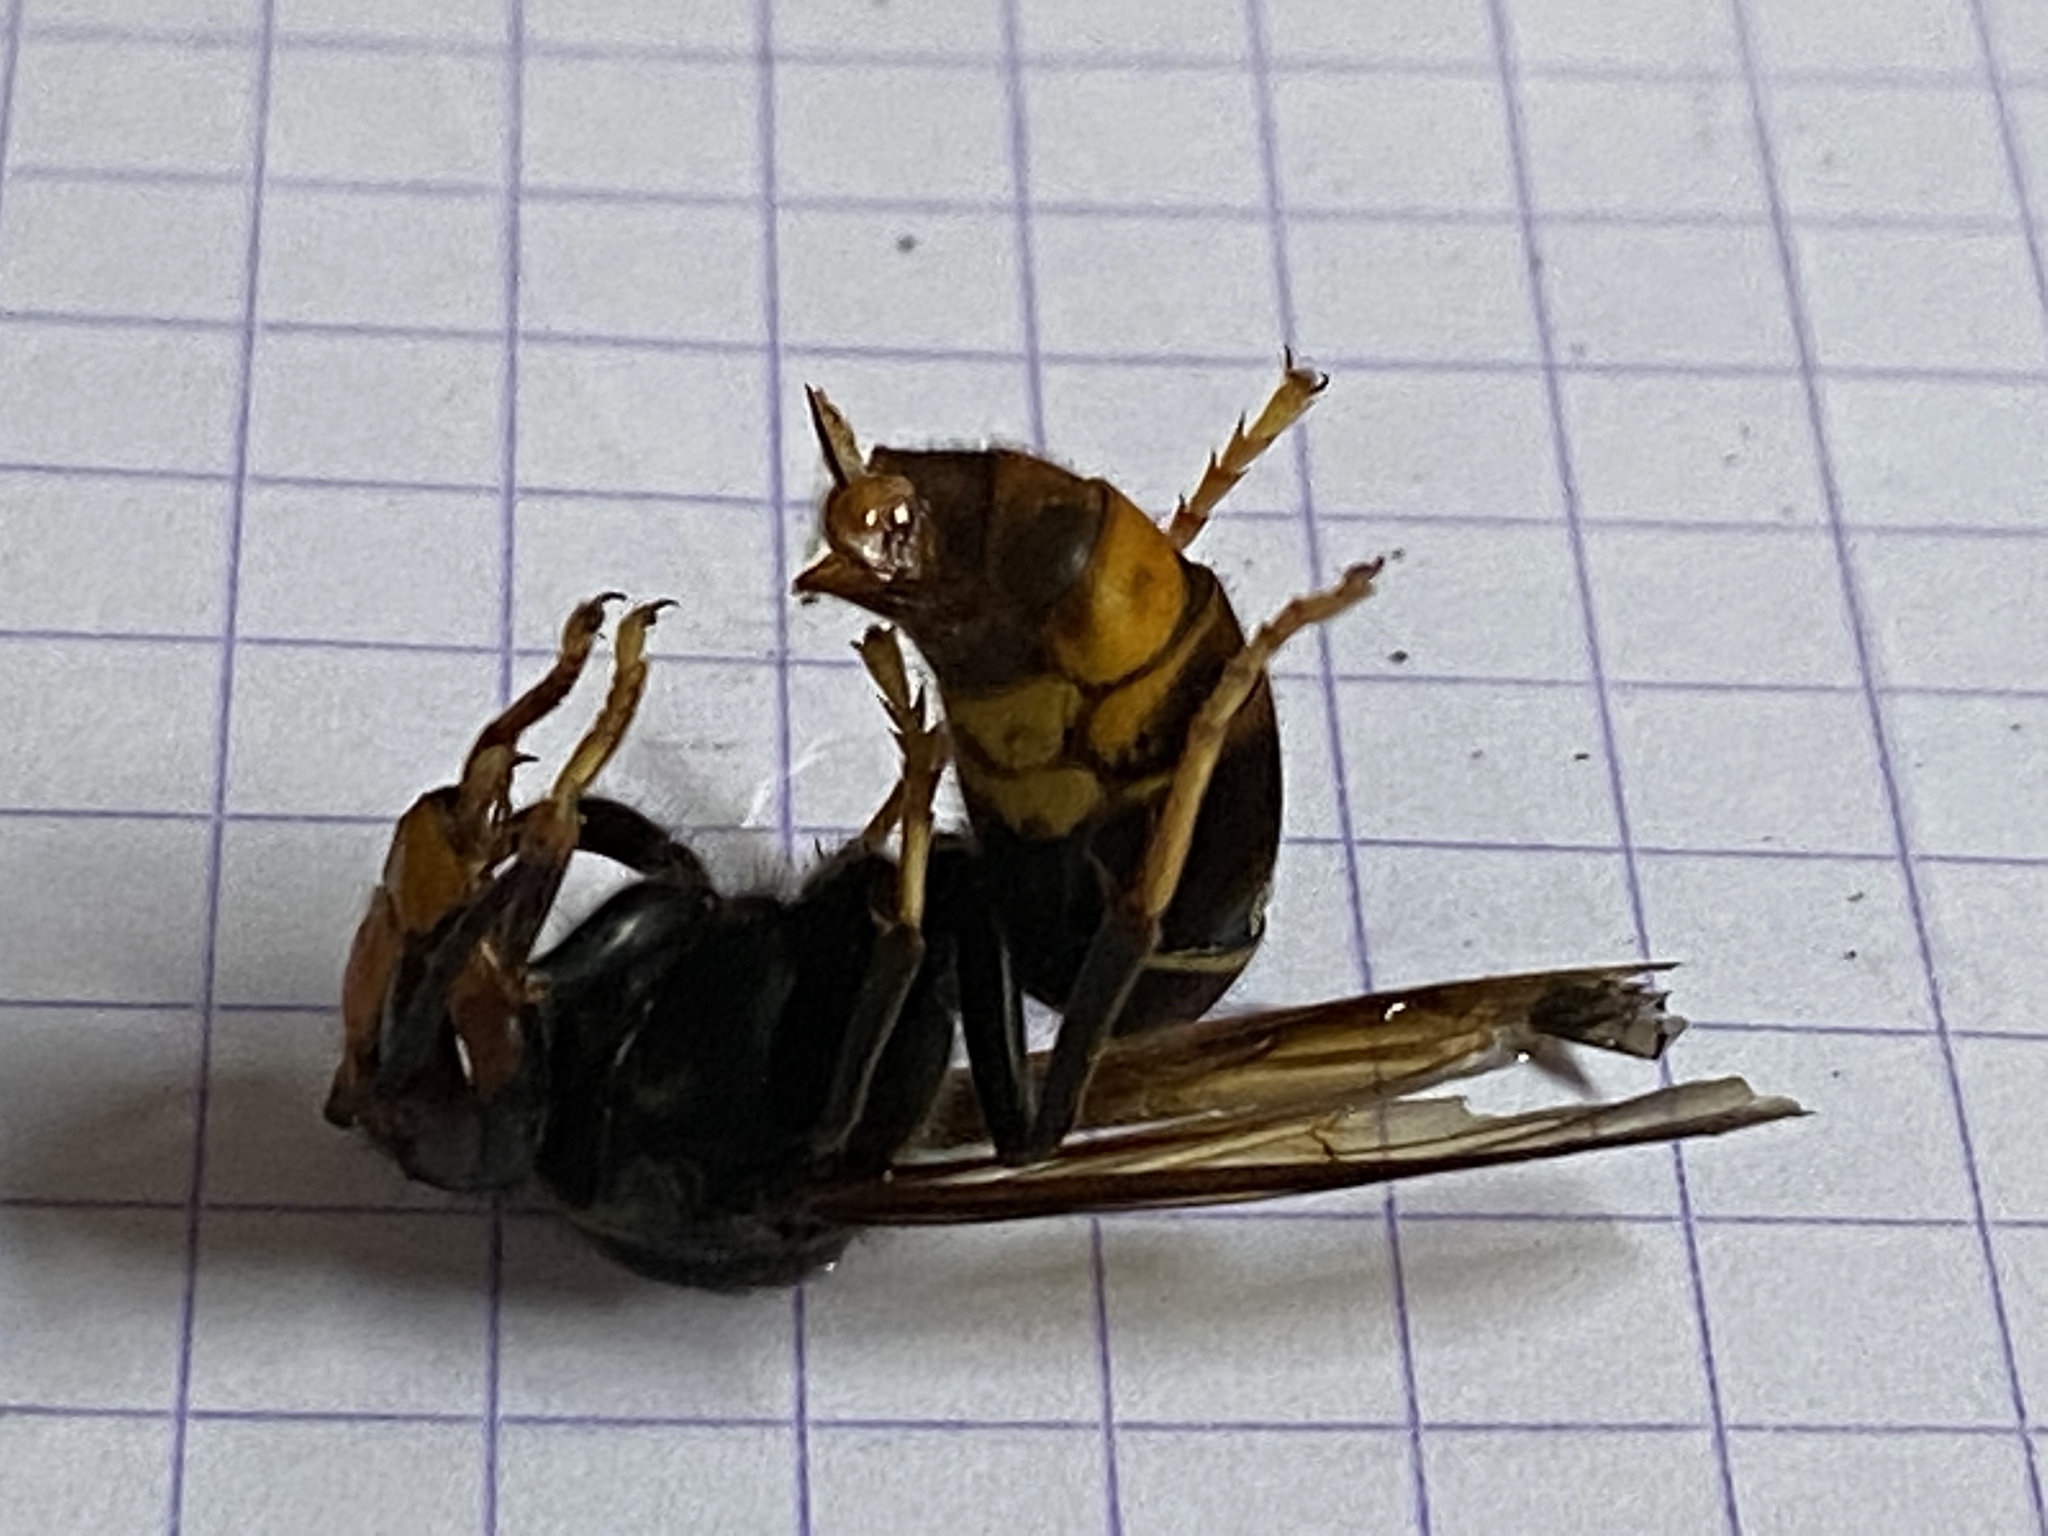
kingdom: Animalia
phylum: Arthropoda
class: Insecta
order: Hymenoptera
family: Vespidae
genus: Vespa
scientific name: Vespa velutina
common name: Asian hornet
